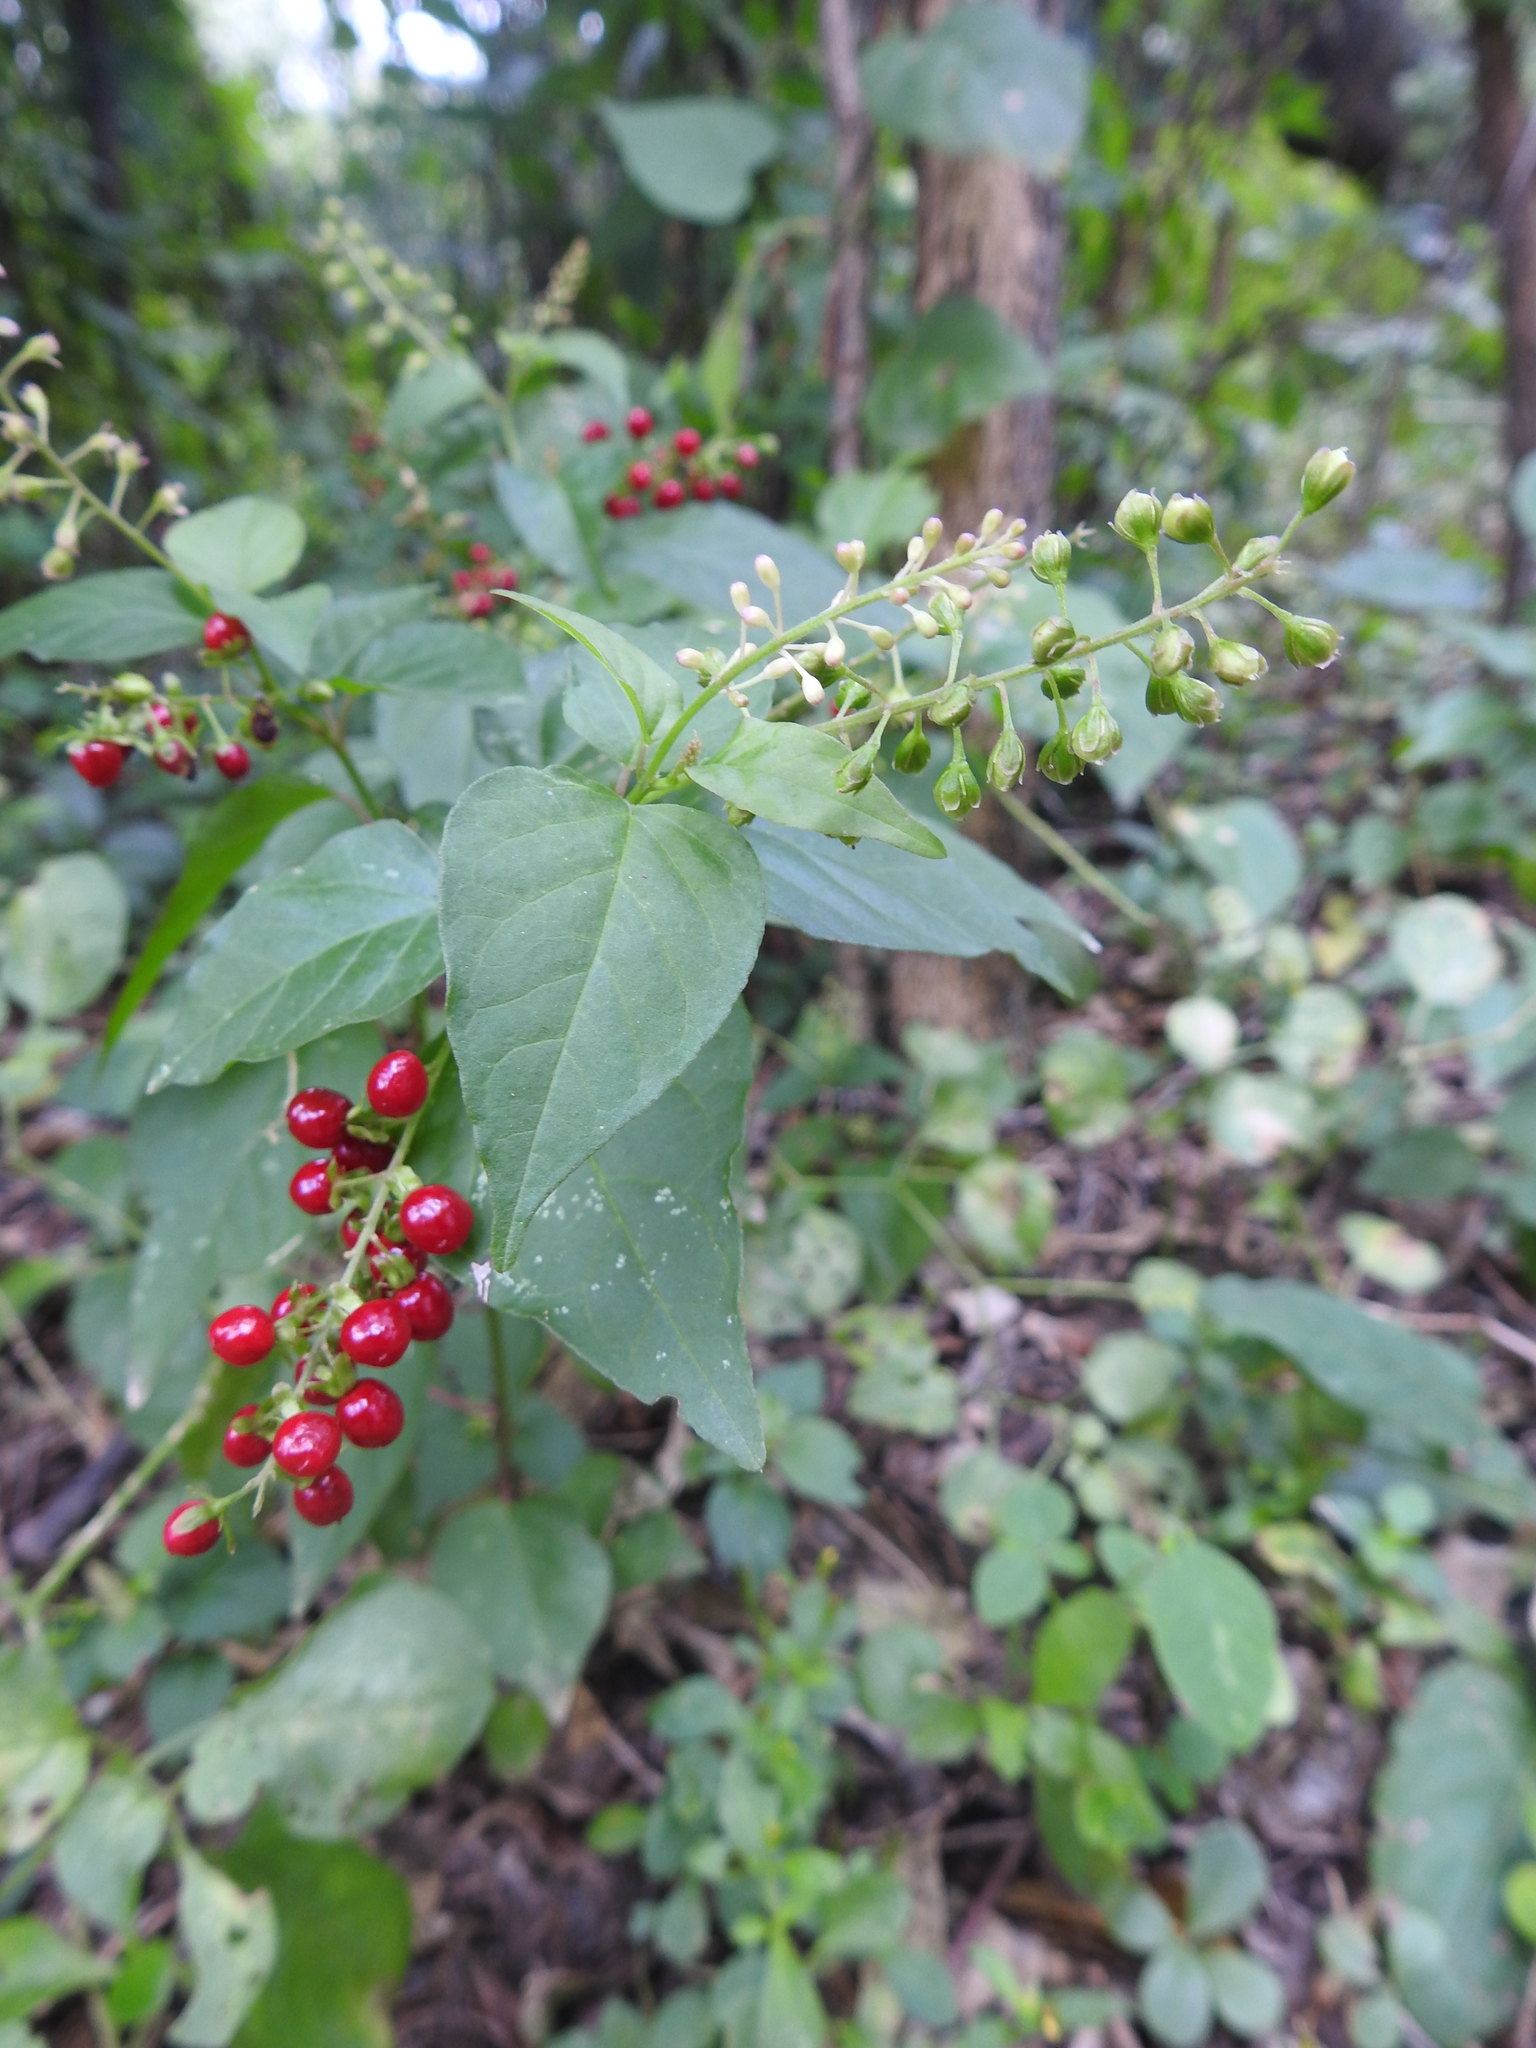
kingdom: Plantae
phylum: Tracheophyta
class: Magnoliopsida
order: Caryophyllales
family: Phytolaccaceae
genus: Rivina
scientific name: Rivina humilis
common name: Rougeplant
